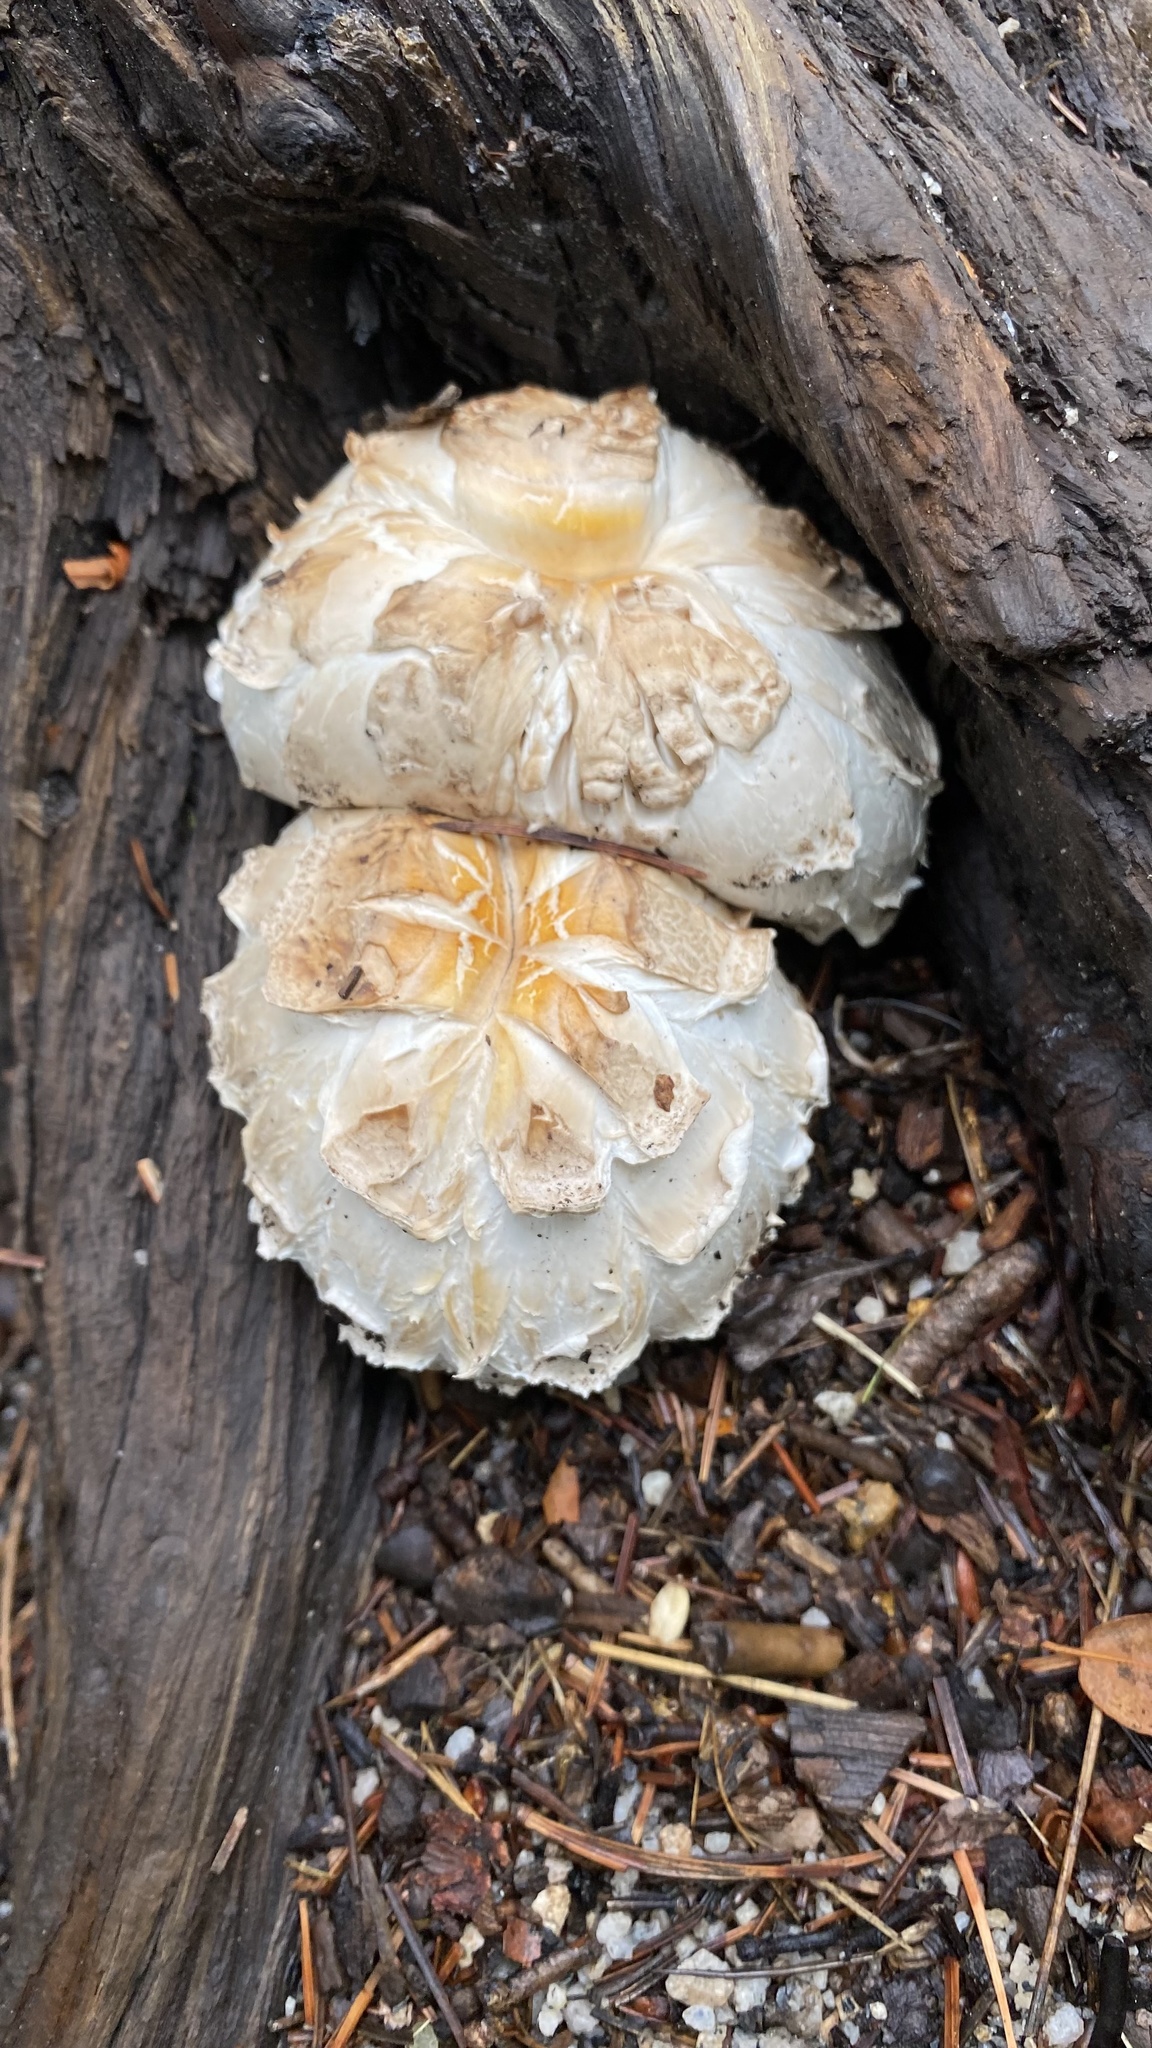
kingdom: Fungi
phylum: Basidiomycota
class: Agaricomycetes
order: Gloeophyllales
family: Gloeophyllaceae
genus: Neolentinus
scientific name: Neolentinus ponderosus
